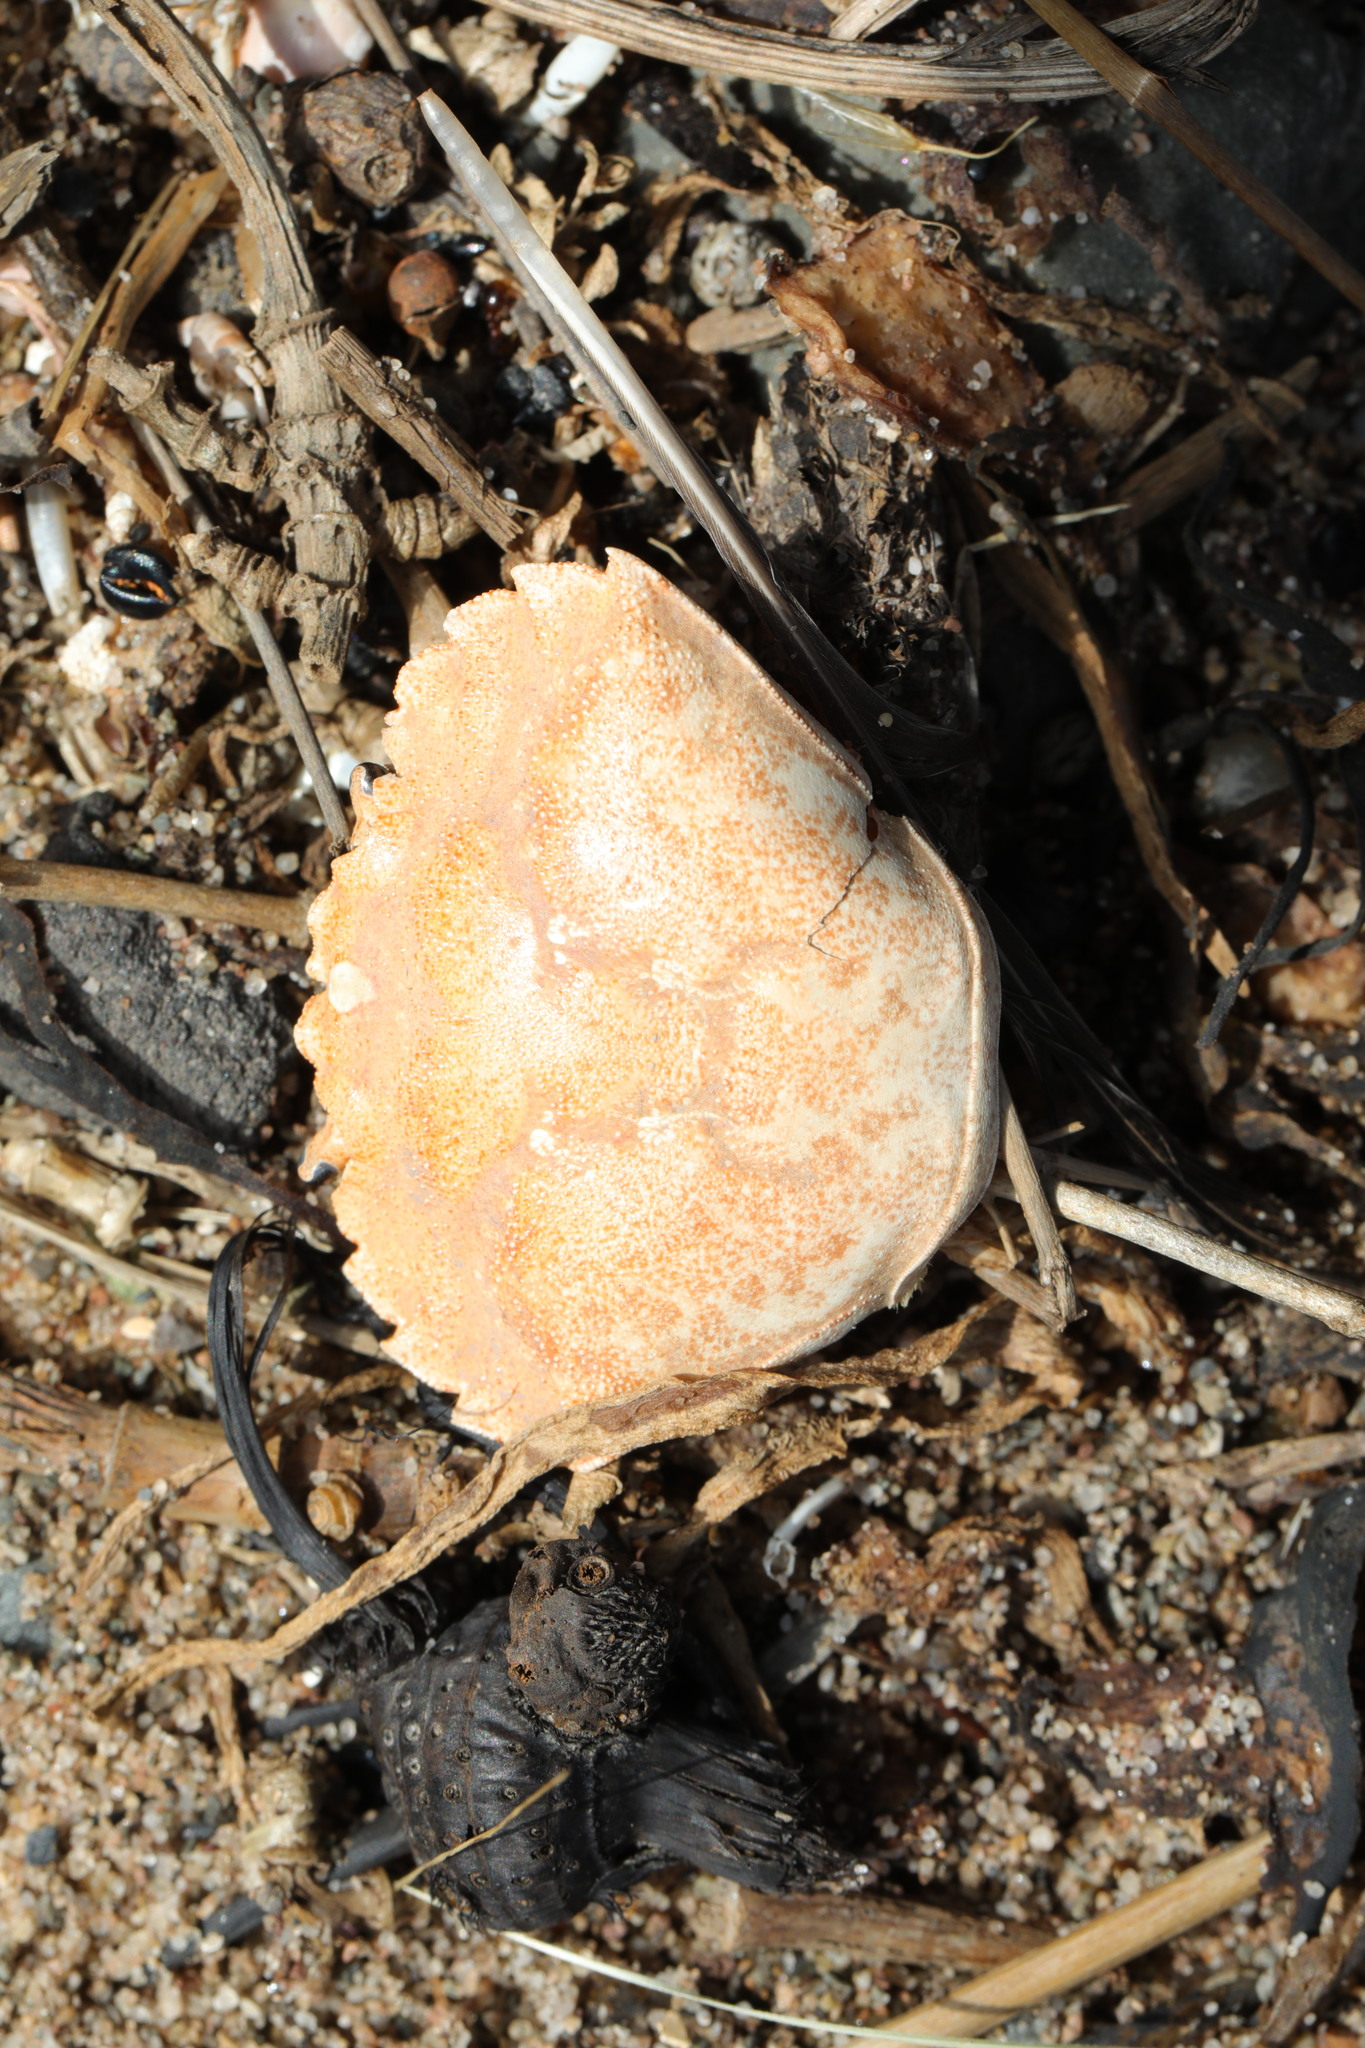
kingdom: Animalia
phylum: Arthropoda
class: Malacostraca
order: Decapoda
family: Carcinidae
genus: Carcinus
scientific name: Carcinus maenas
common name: European green crab
